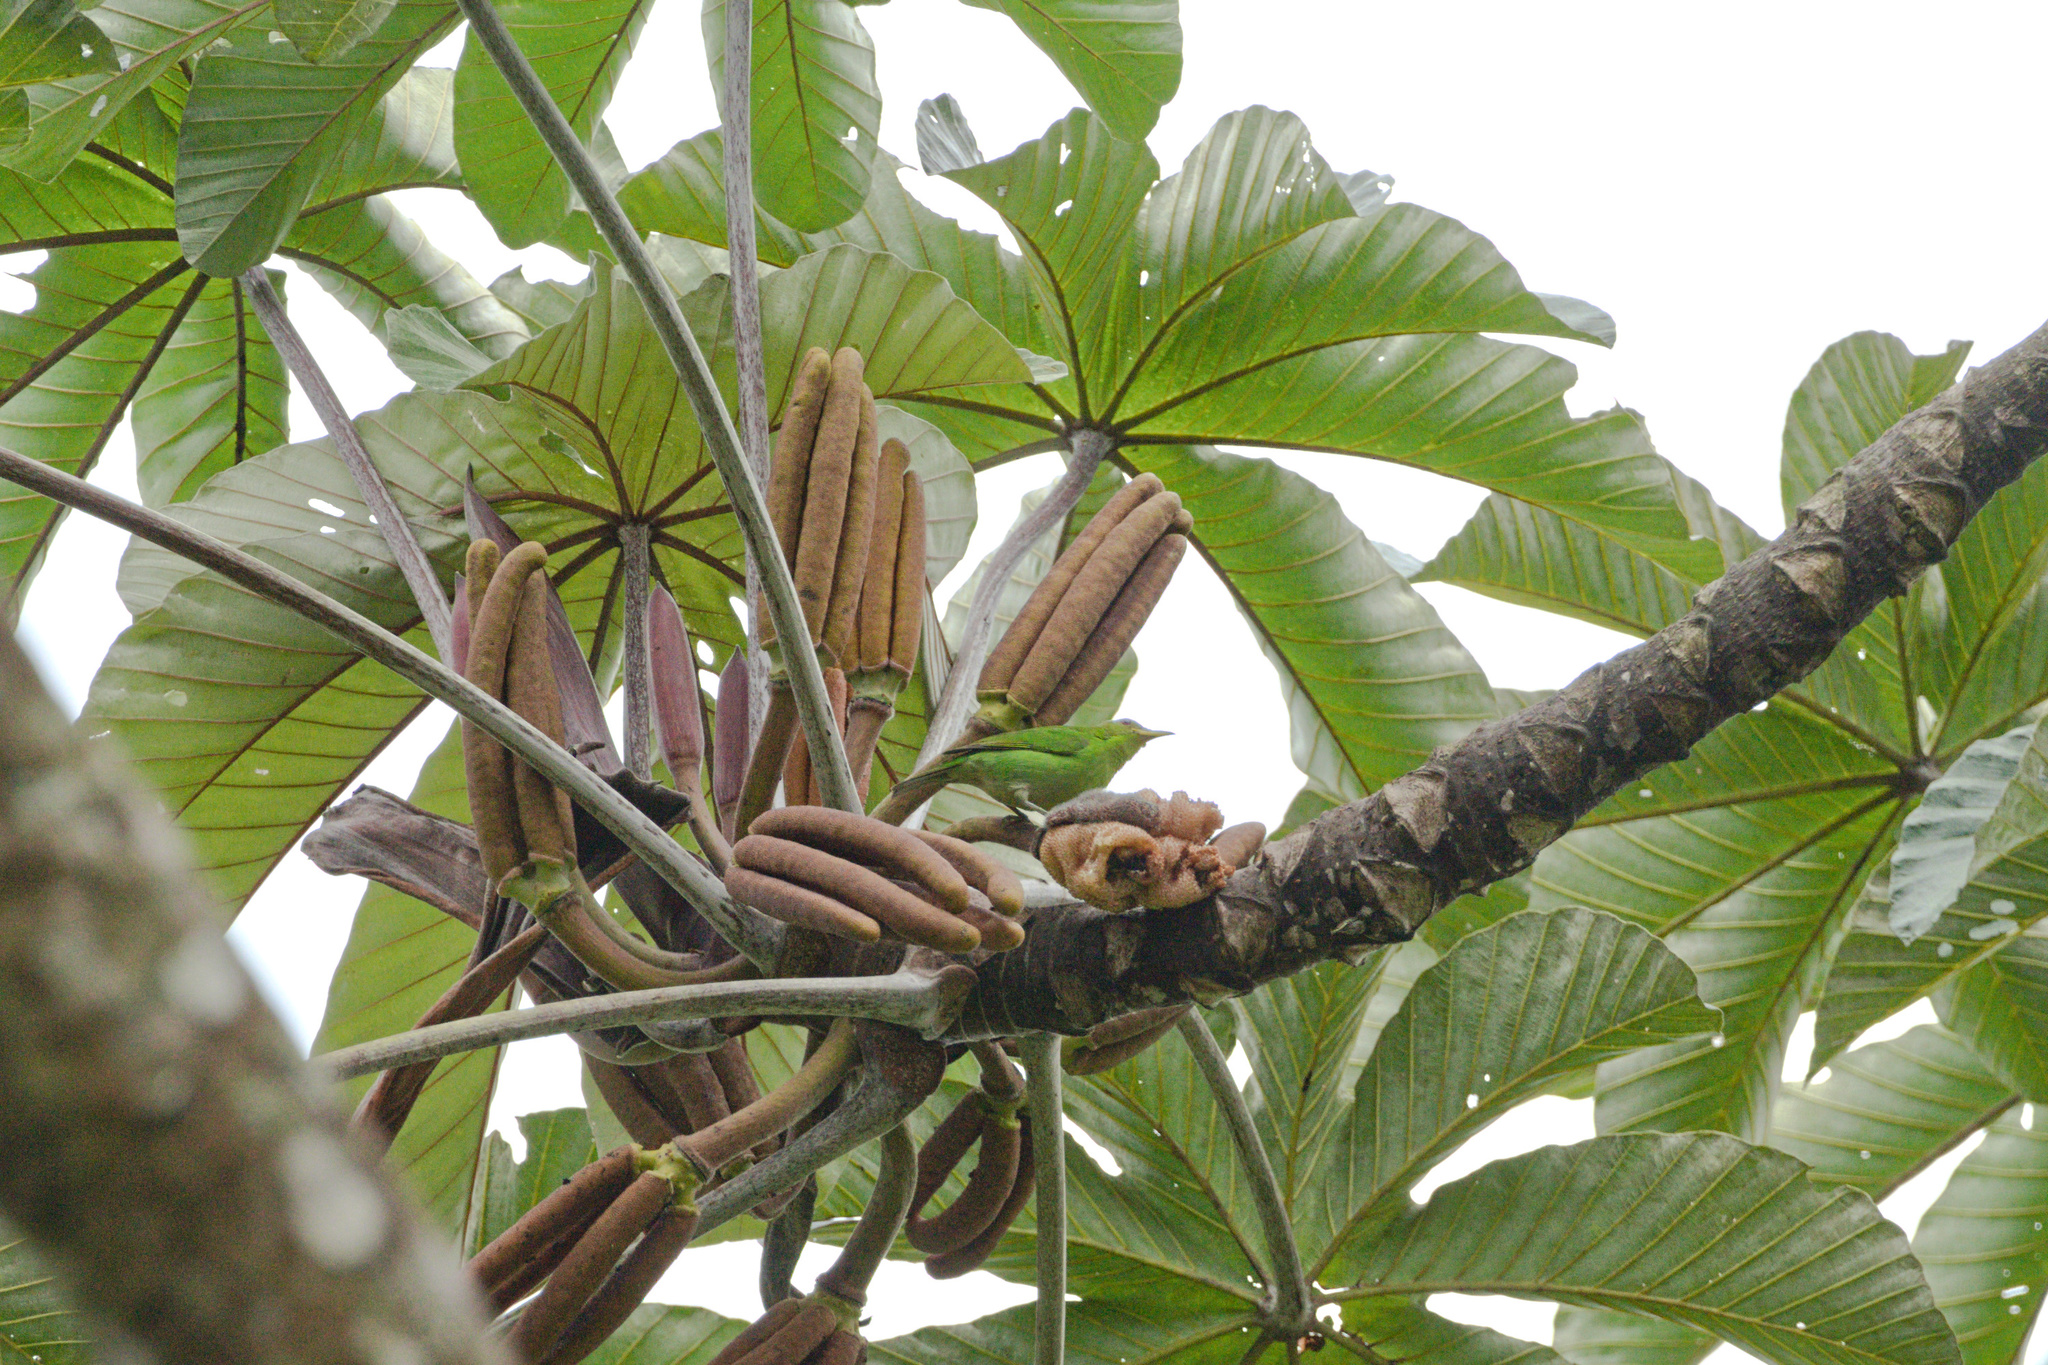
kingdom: Animalia
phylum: Chordata
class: Aves
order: Passeriformes
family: Thraupidae
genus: Chlorophanes
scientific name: Chlorophanes spiza
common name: Green honeycreeper
